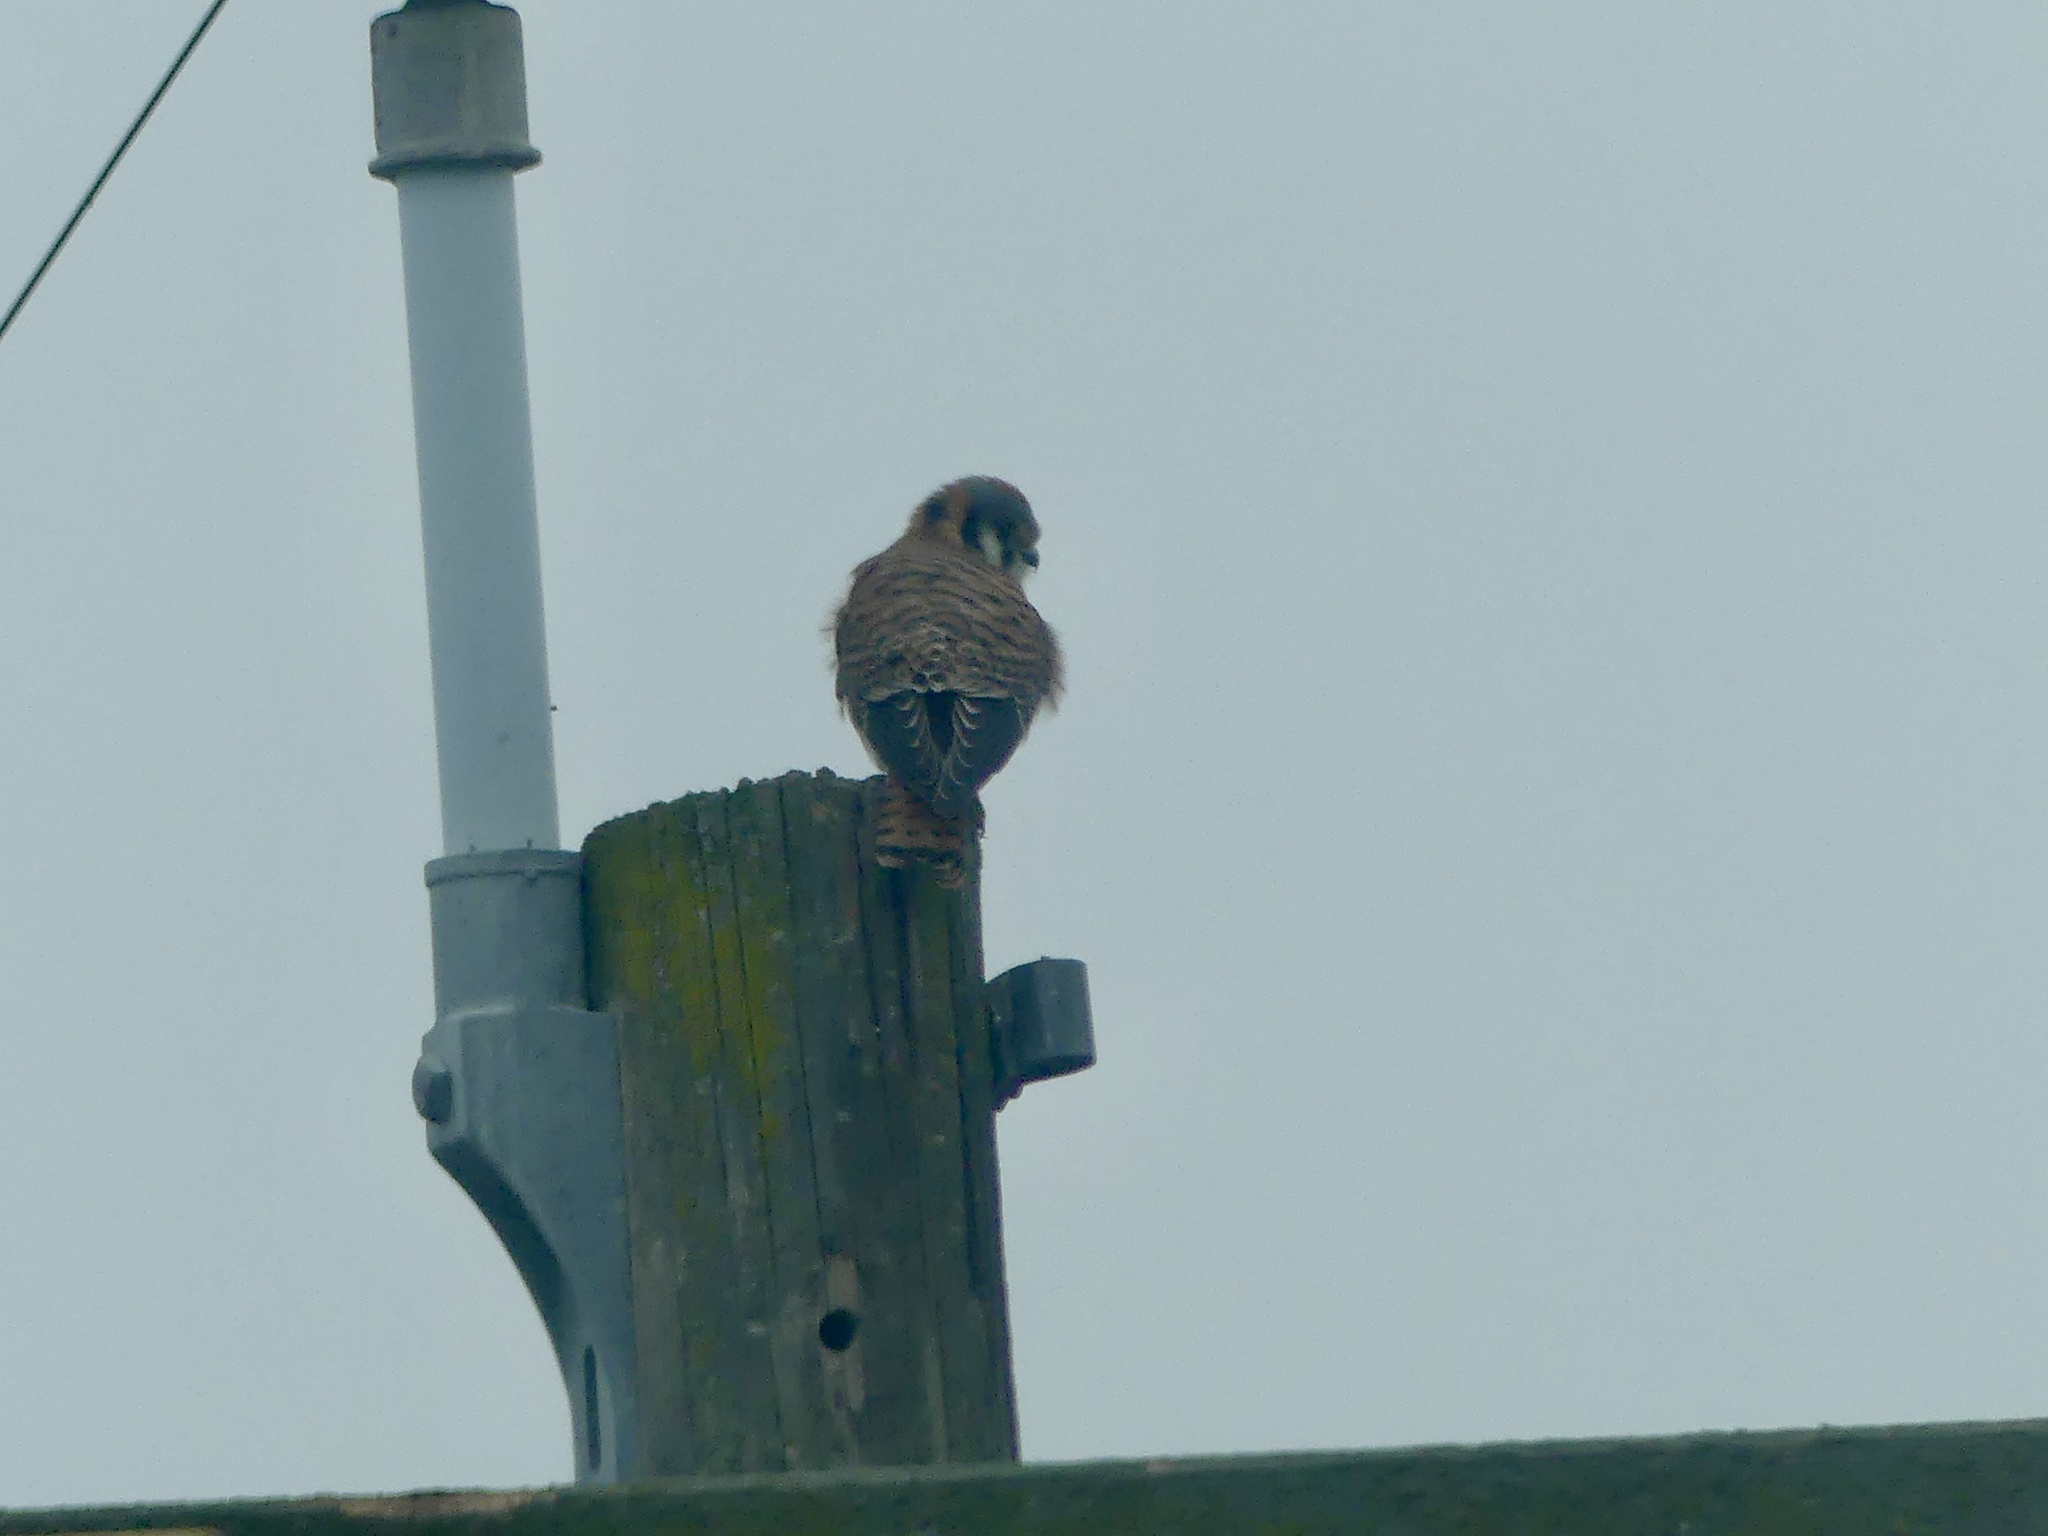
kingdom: Animalia
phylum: Chordata
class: Aves
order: Falconiformes
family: Falconidae
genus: Falco
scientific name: Falco sparverius
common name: American kestrel
